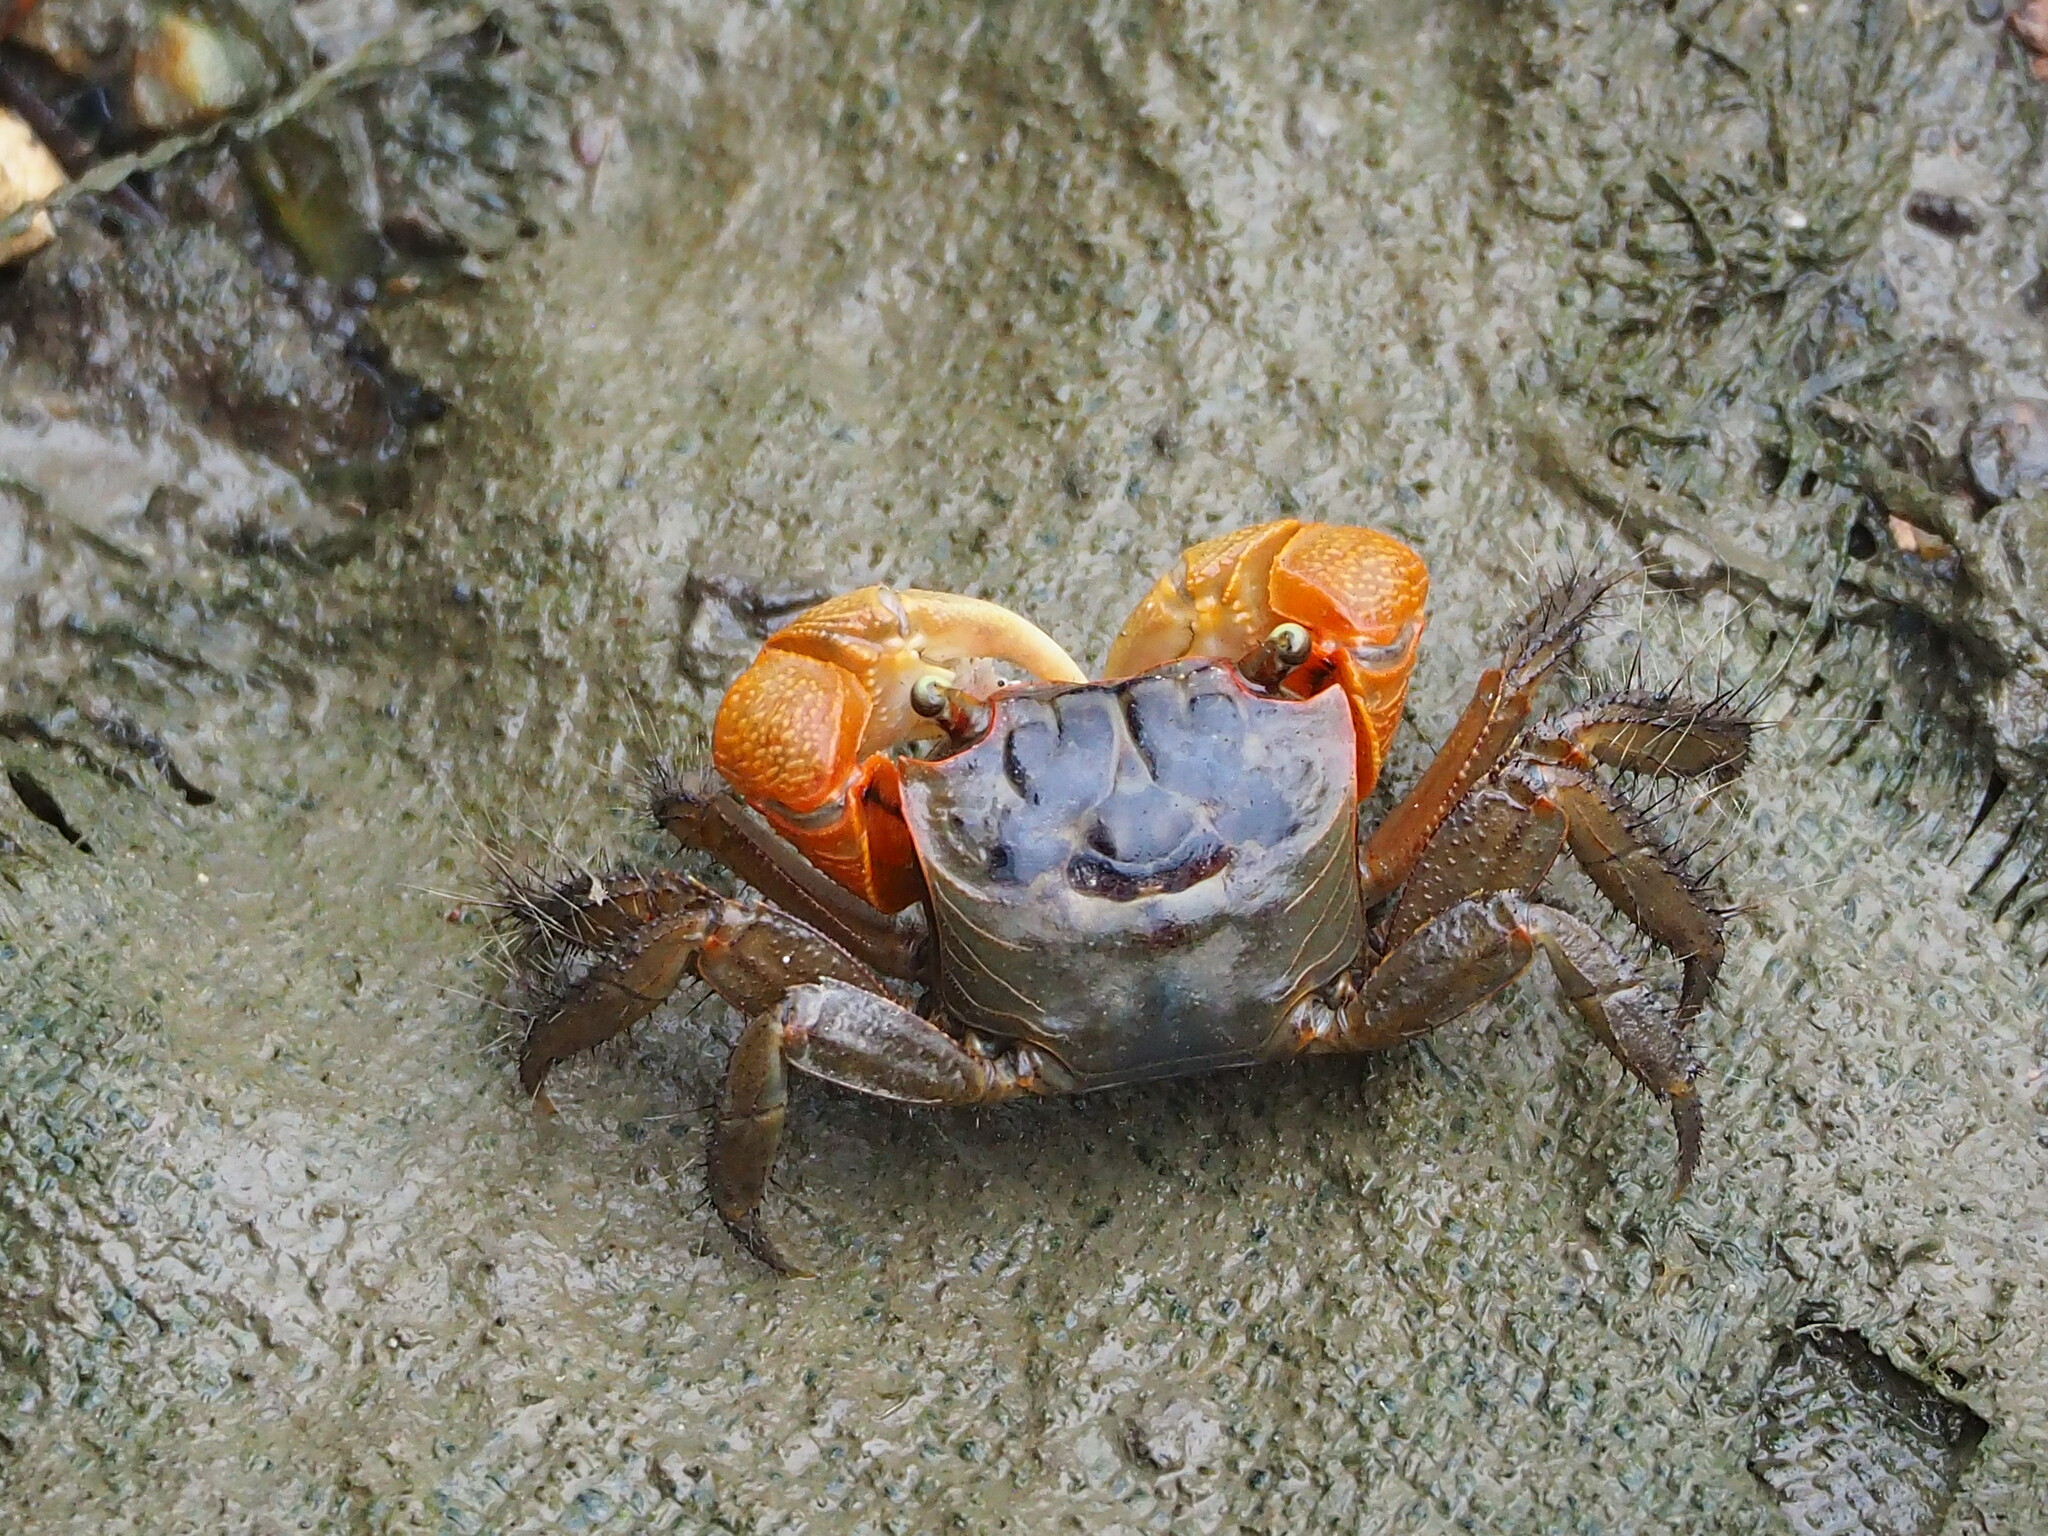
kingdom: Animalia
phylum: Arthropoda
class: Malacostraca
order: Decapoda
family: Sesarmidae
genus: Orisarma
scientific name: Orisarma dehaani
